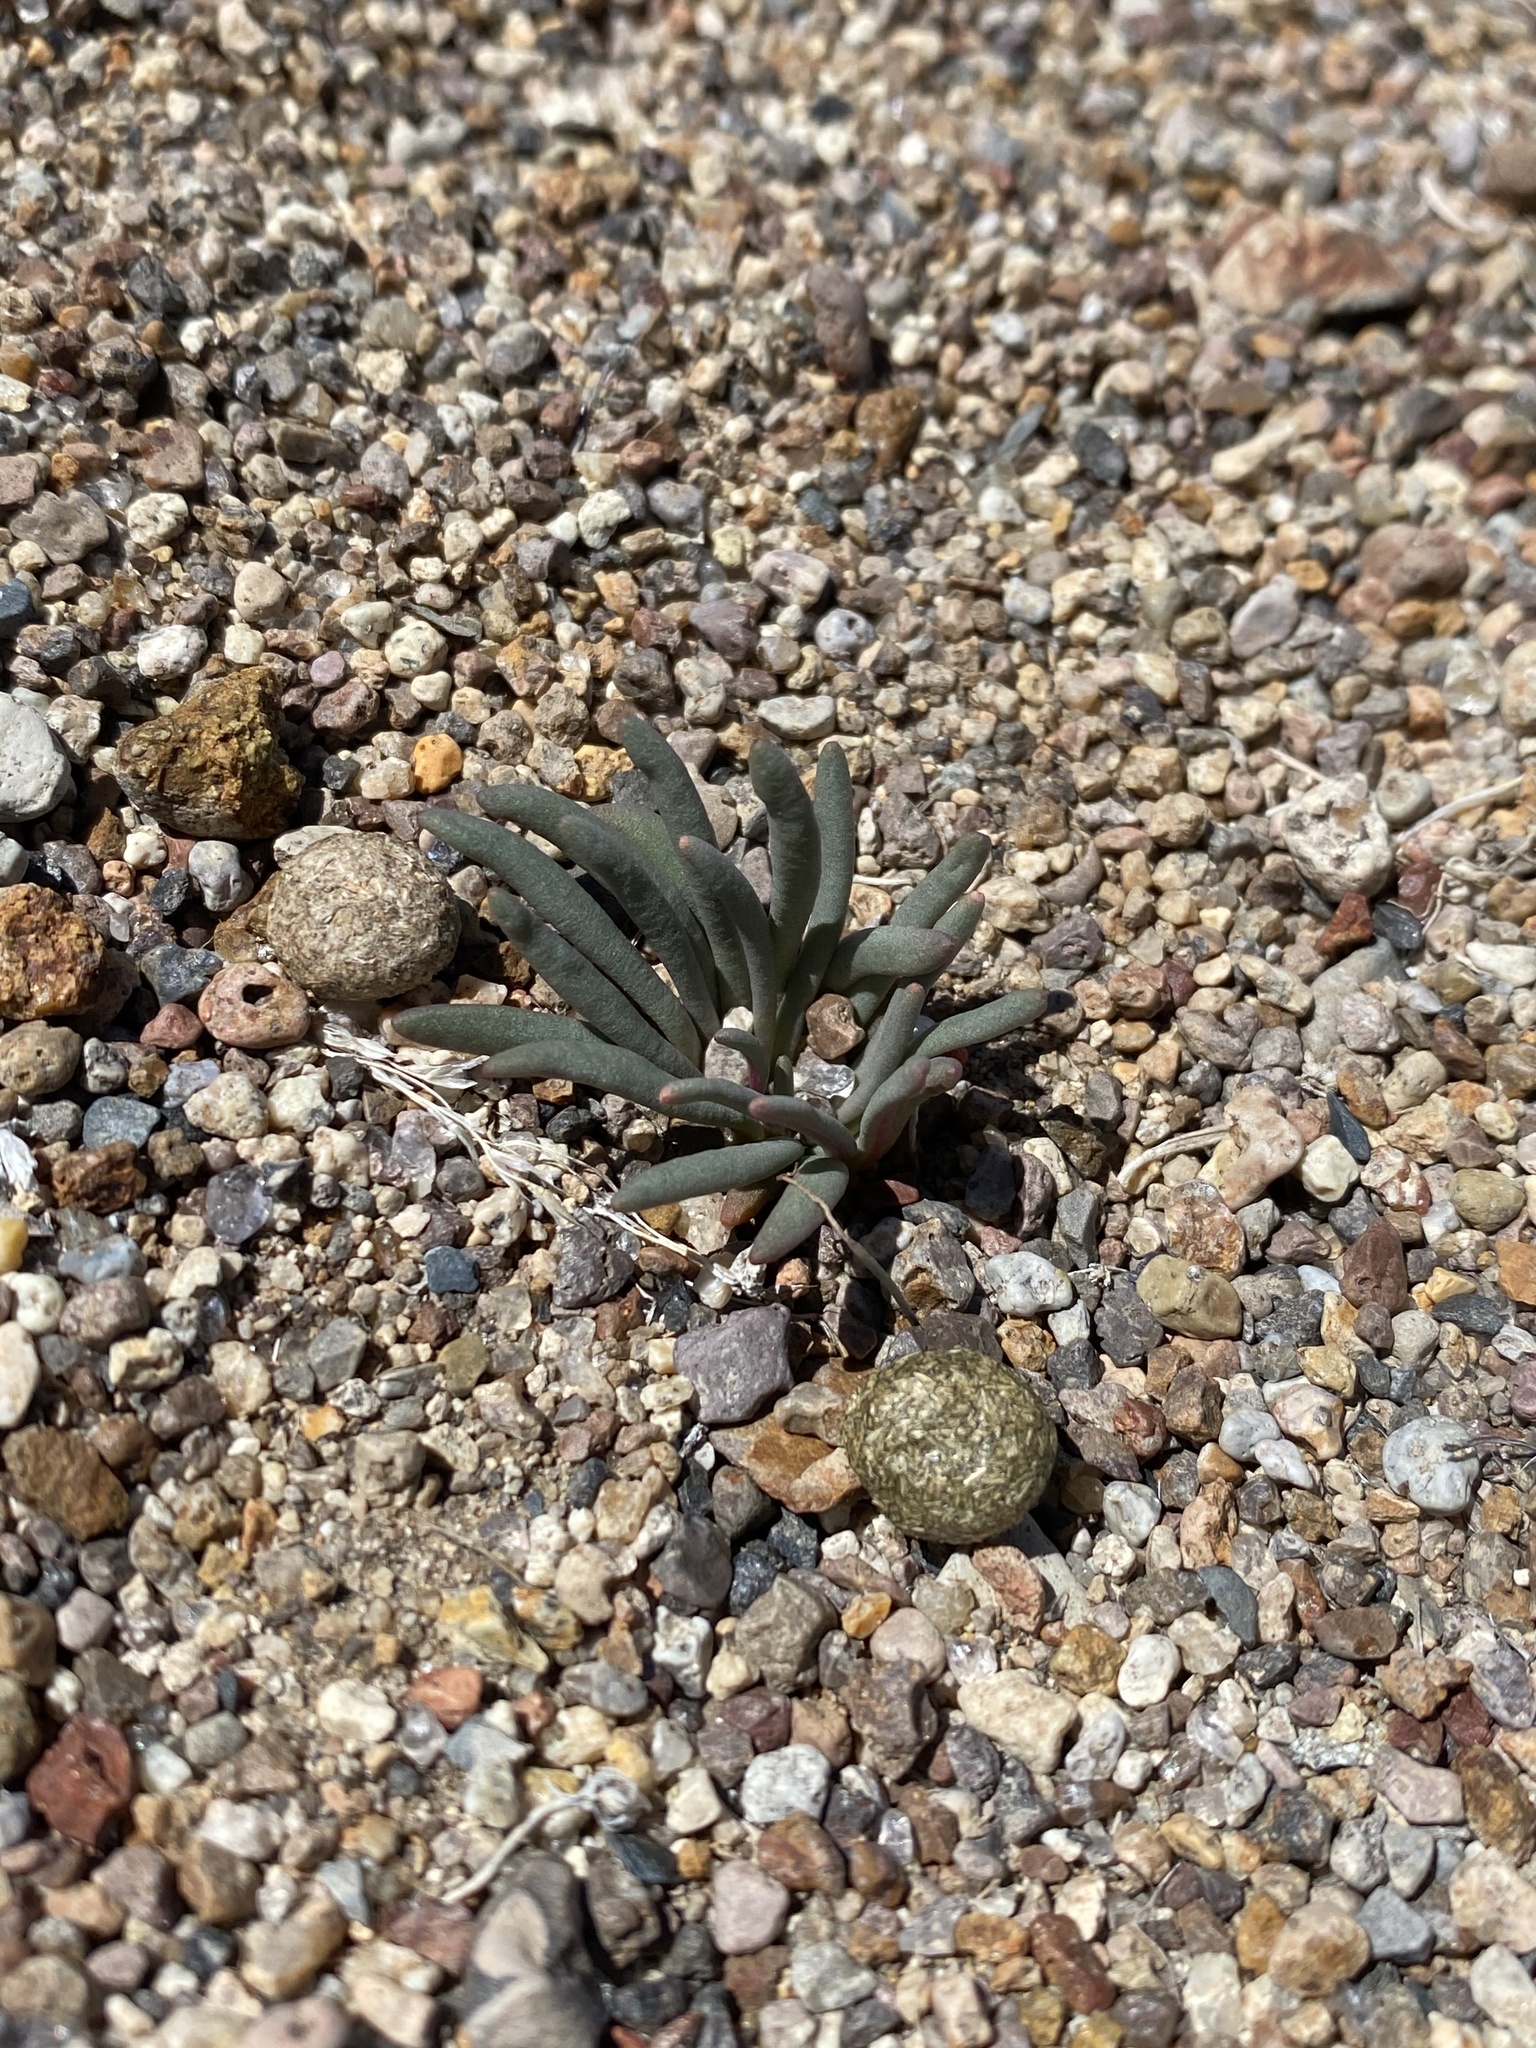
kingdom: Plantae
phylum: Tracheophyta
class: Magnoliopsida
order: Caryophyllales
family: Montiaceae
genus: Lewisia
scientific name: Lewisia rediviva
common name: Bitter-root
